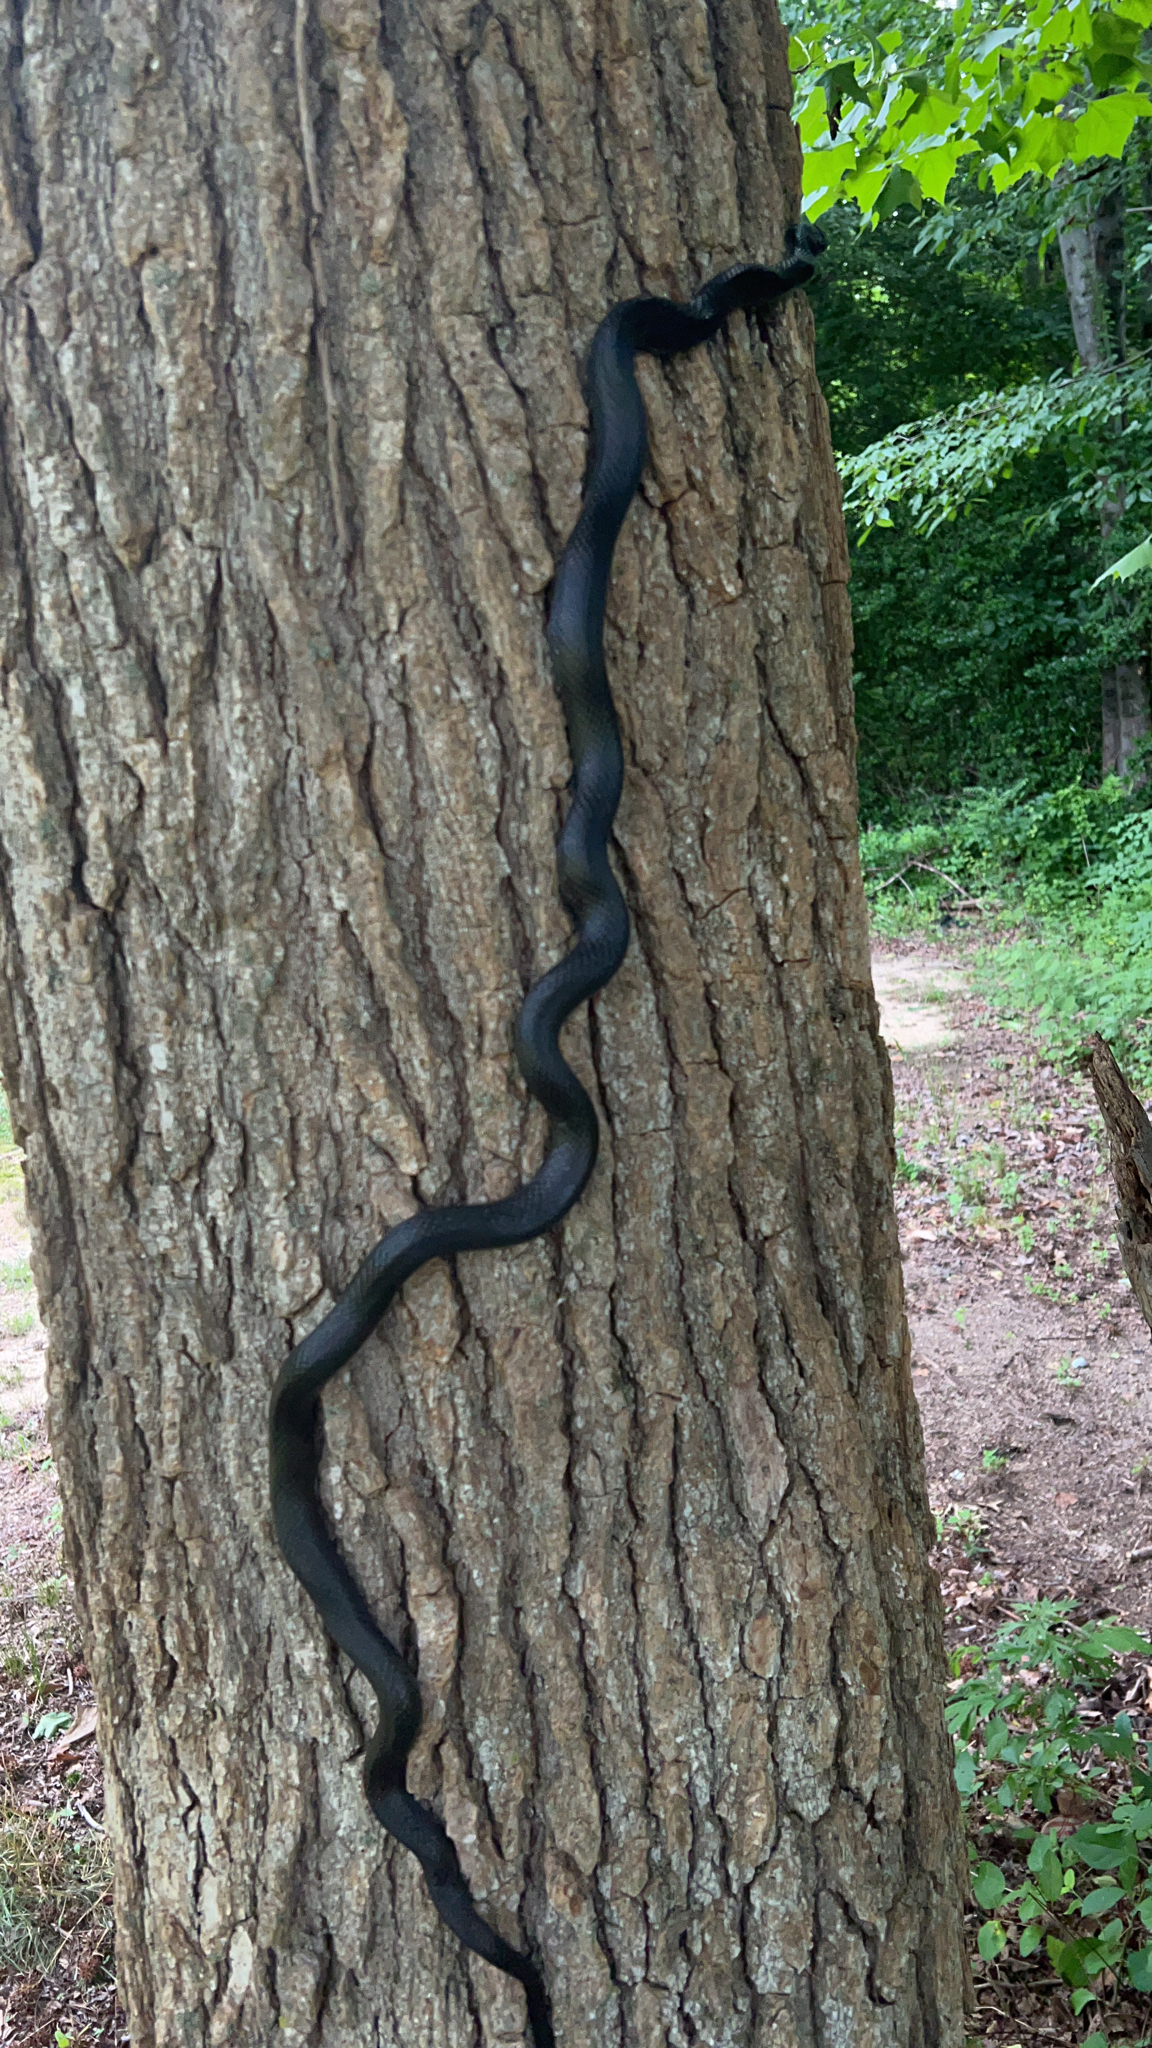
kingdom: Animalia
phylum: Chordata
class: Squamata
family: Colubridae
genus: Pantherophis
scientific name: Pantherophis alleghaniensis
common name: Eastern rat snake
